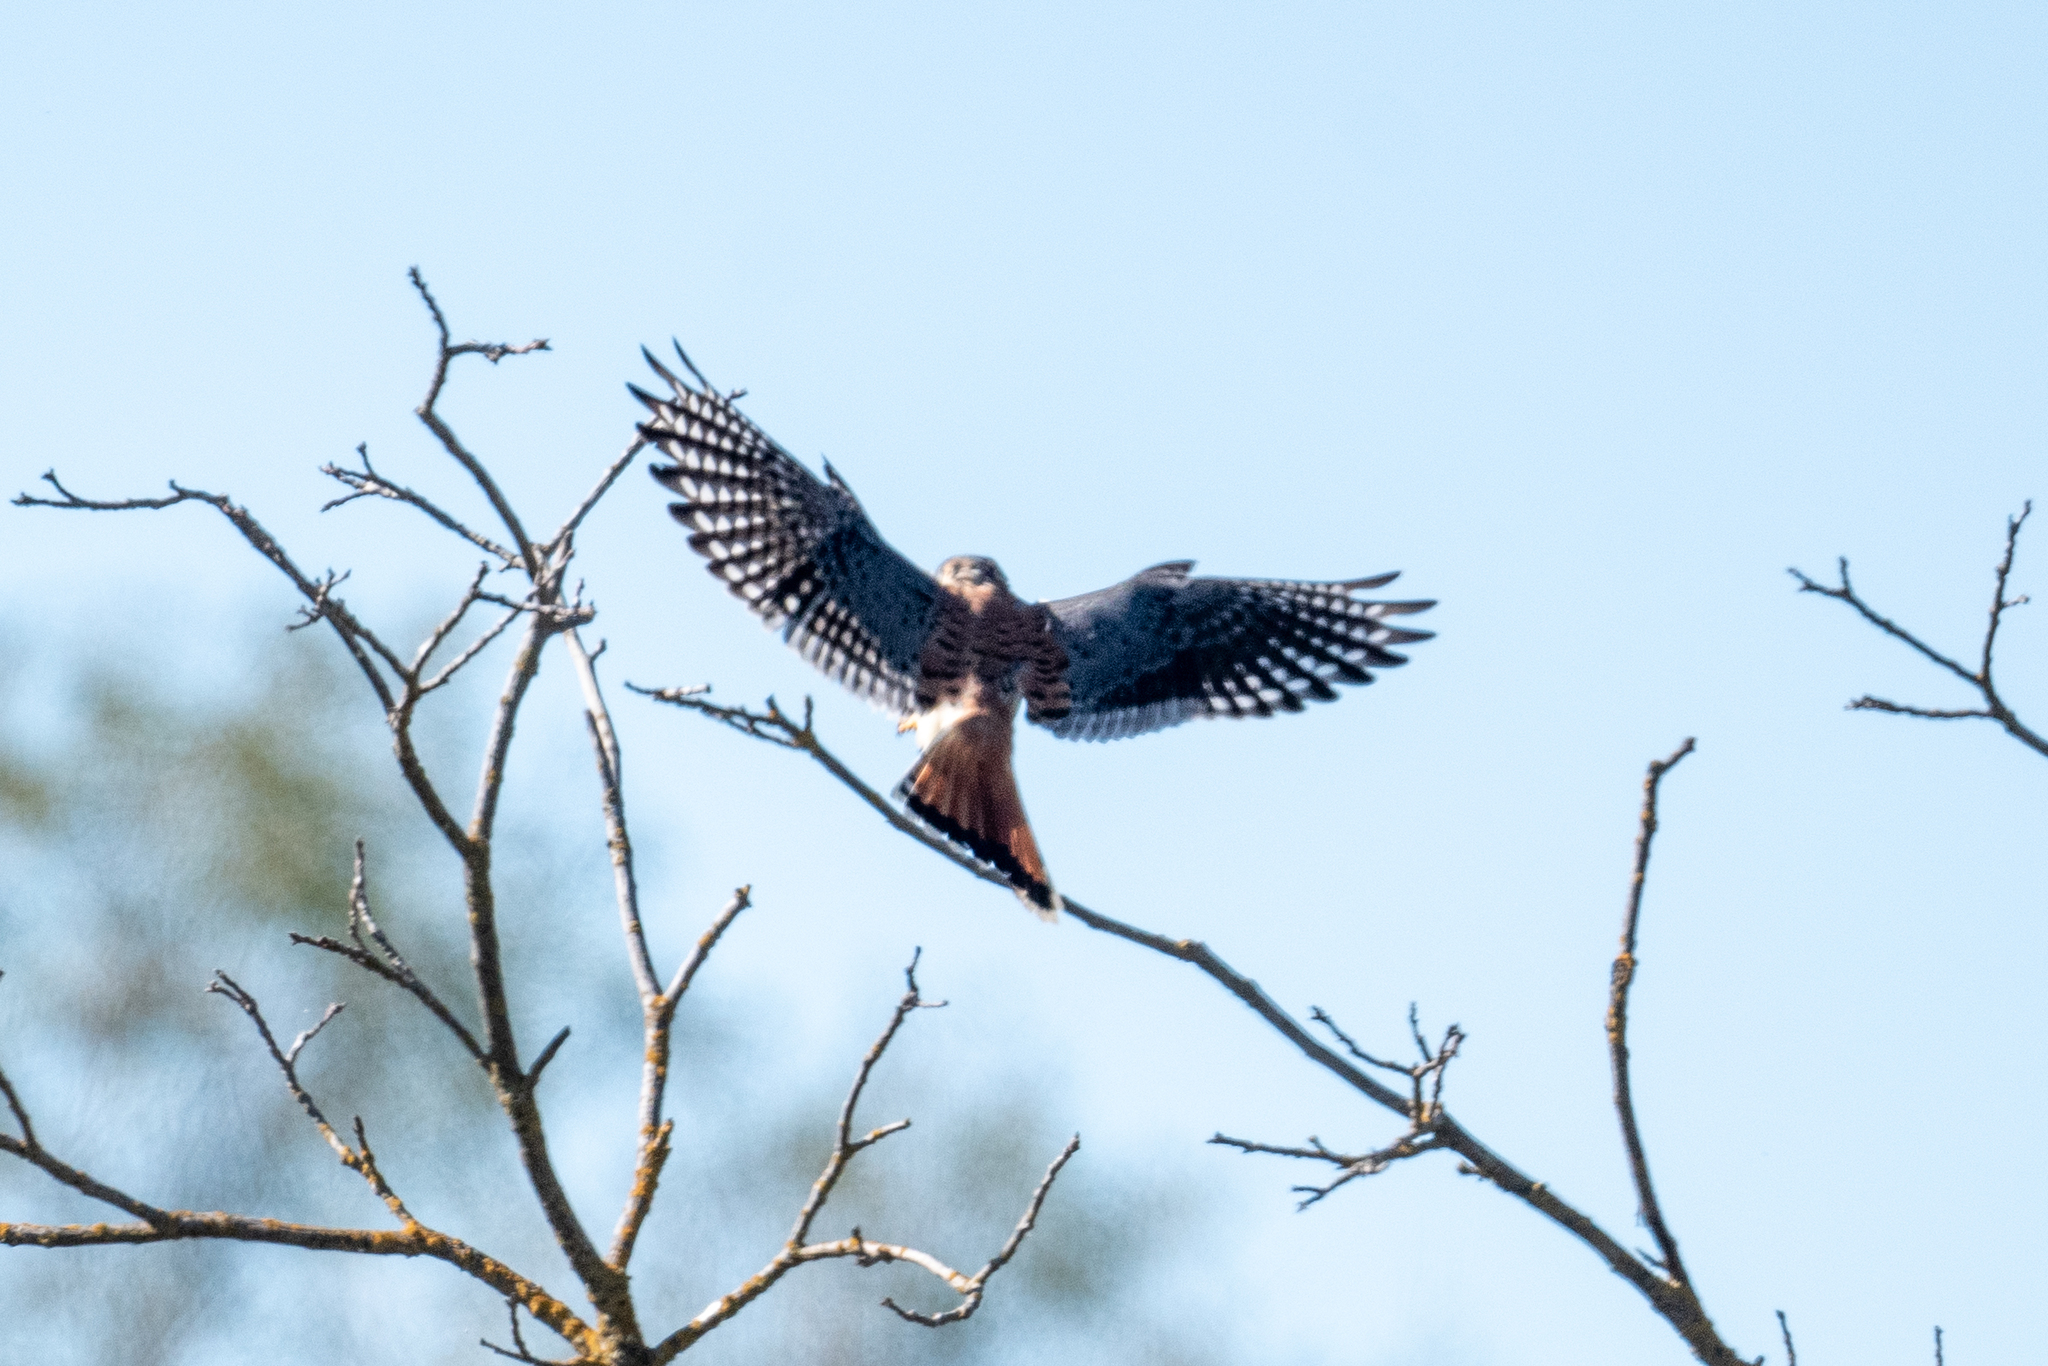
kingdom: Animalia
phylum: Chordata
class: Aves
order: Falconiformes
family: Falconidae
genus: Falco
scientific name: Falco sparverius
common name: American kestrel
